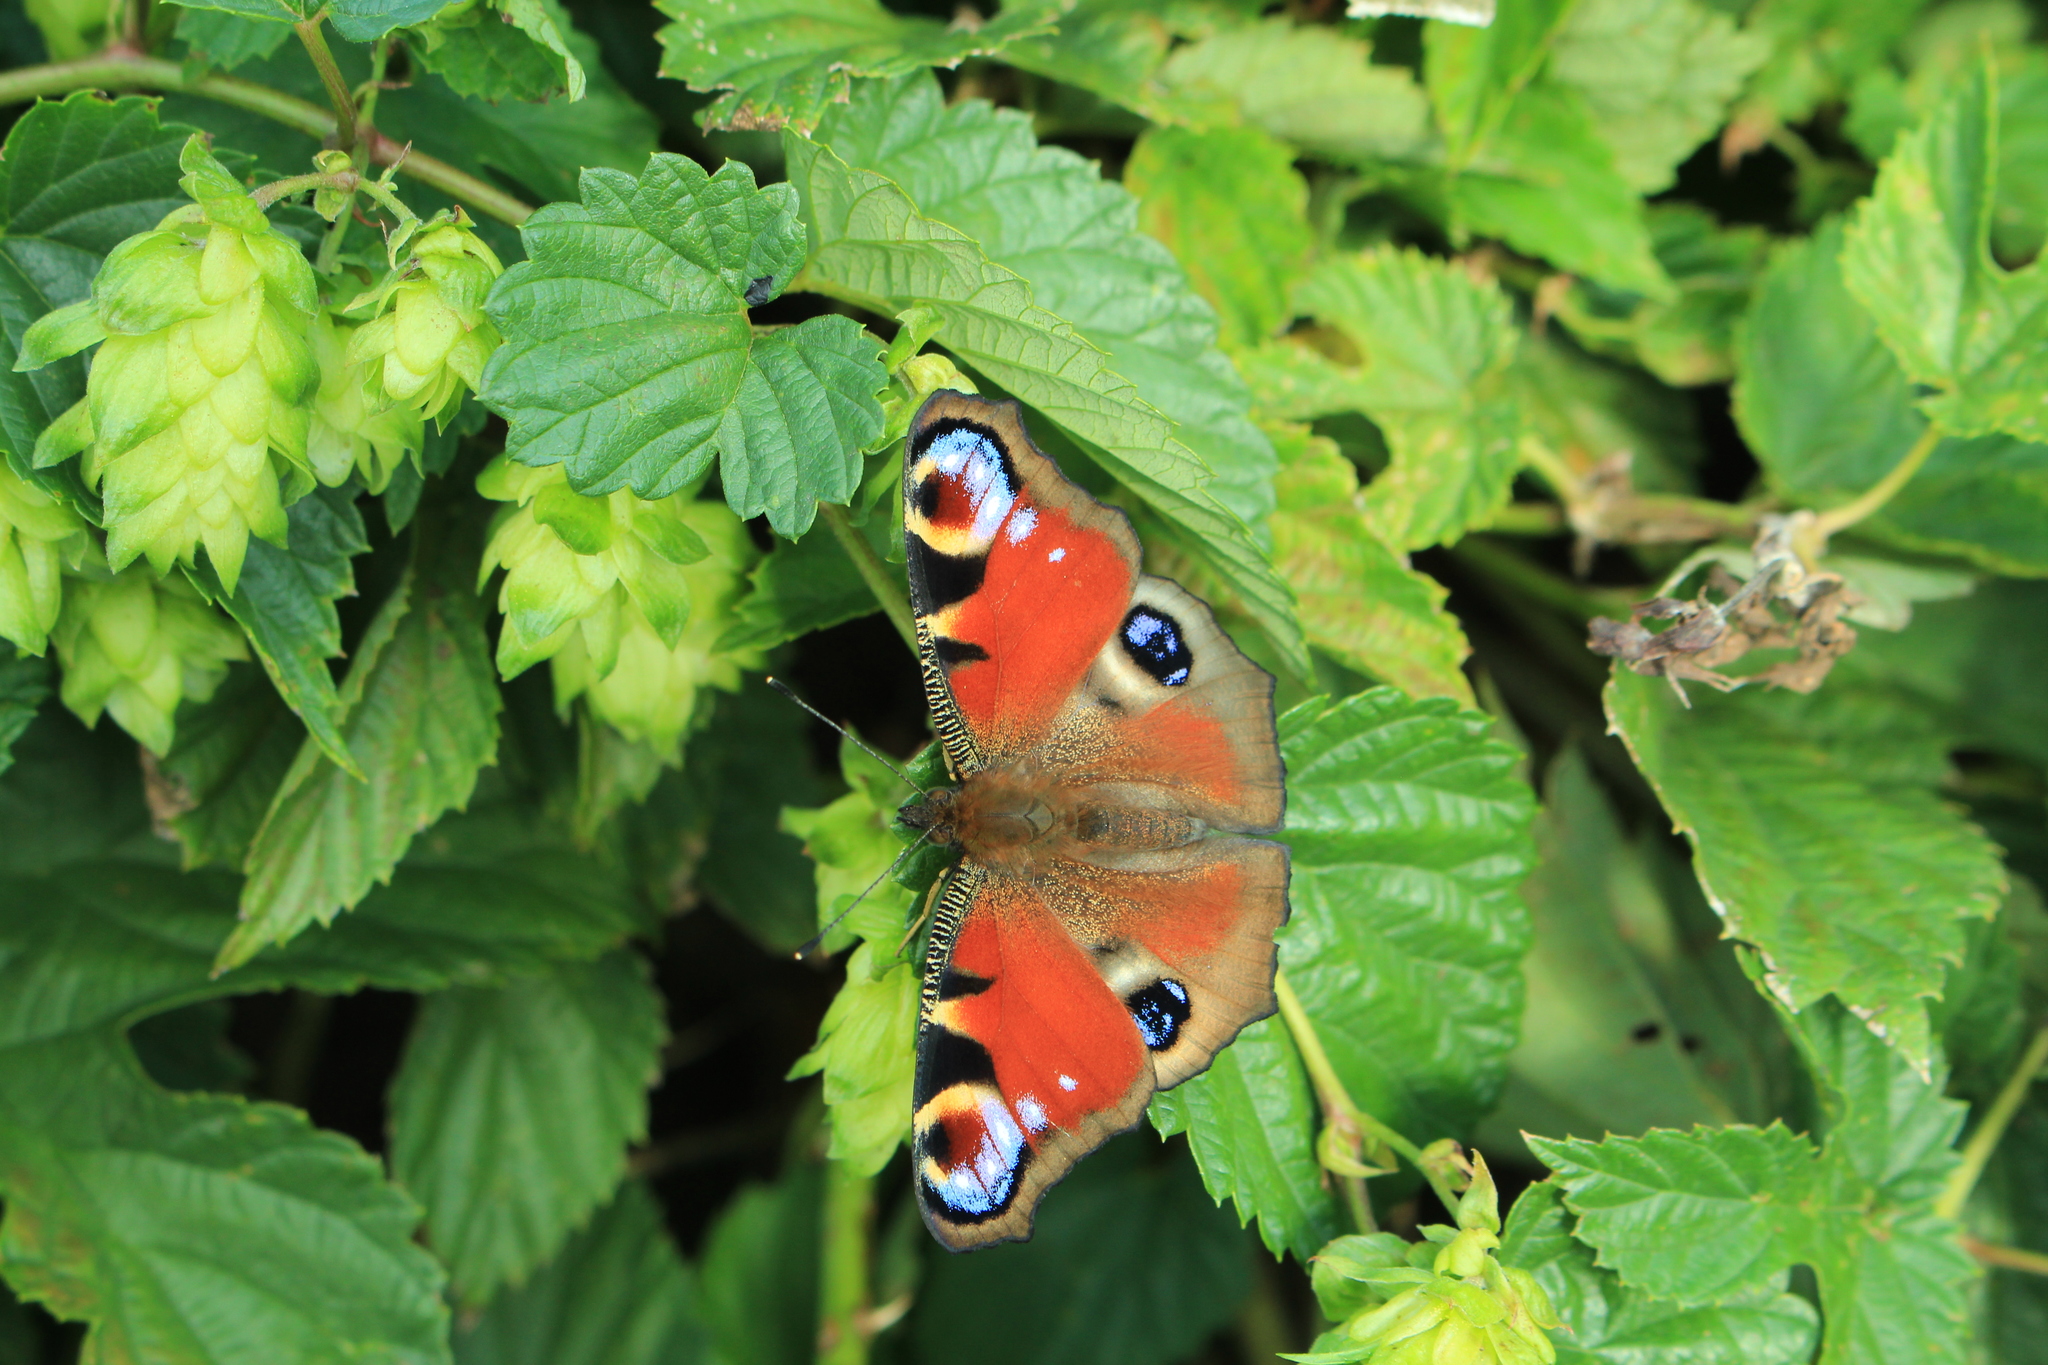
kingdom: Animalia
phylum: Arthropoda
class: Insecta
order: Lepidoptera
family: Nymphalidae
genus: Aglais
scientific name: Aglais io
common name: Peacock
